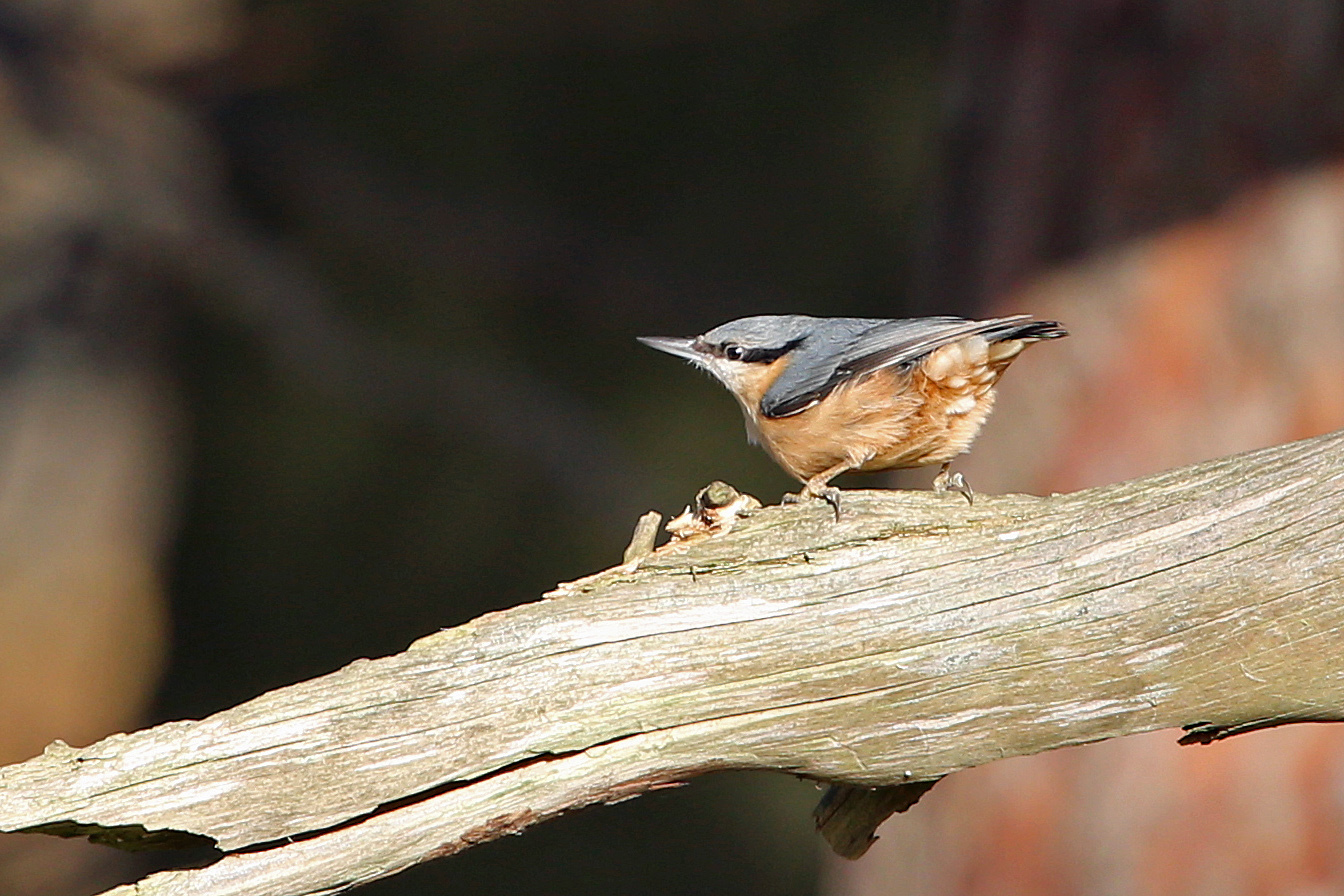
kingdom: Animalia
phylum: Chordata
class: Aves
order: Passeriformes
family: Sittidae
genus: Sitta
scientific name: Sitta europaea
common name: Eurasian nuthatch
